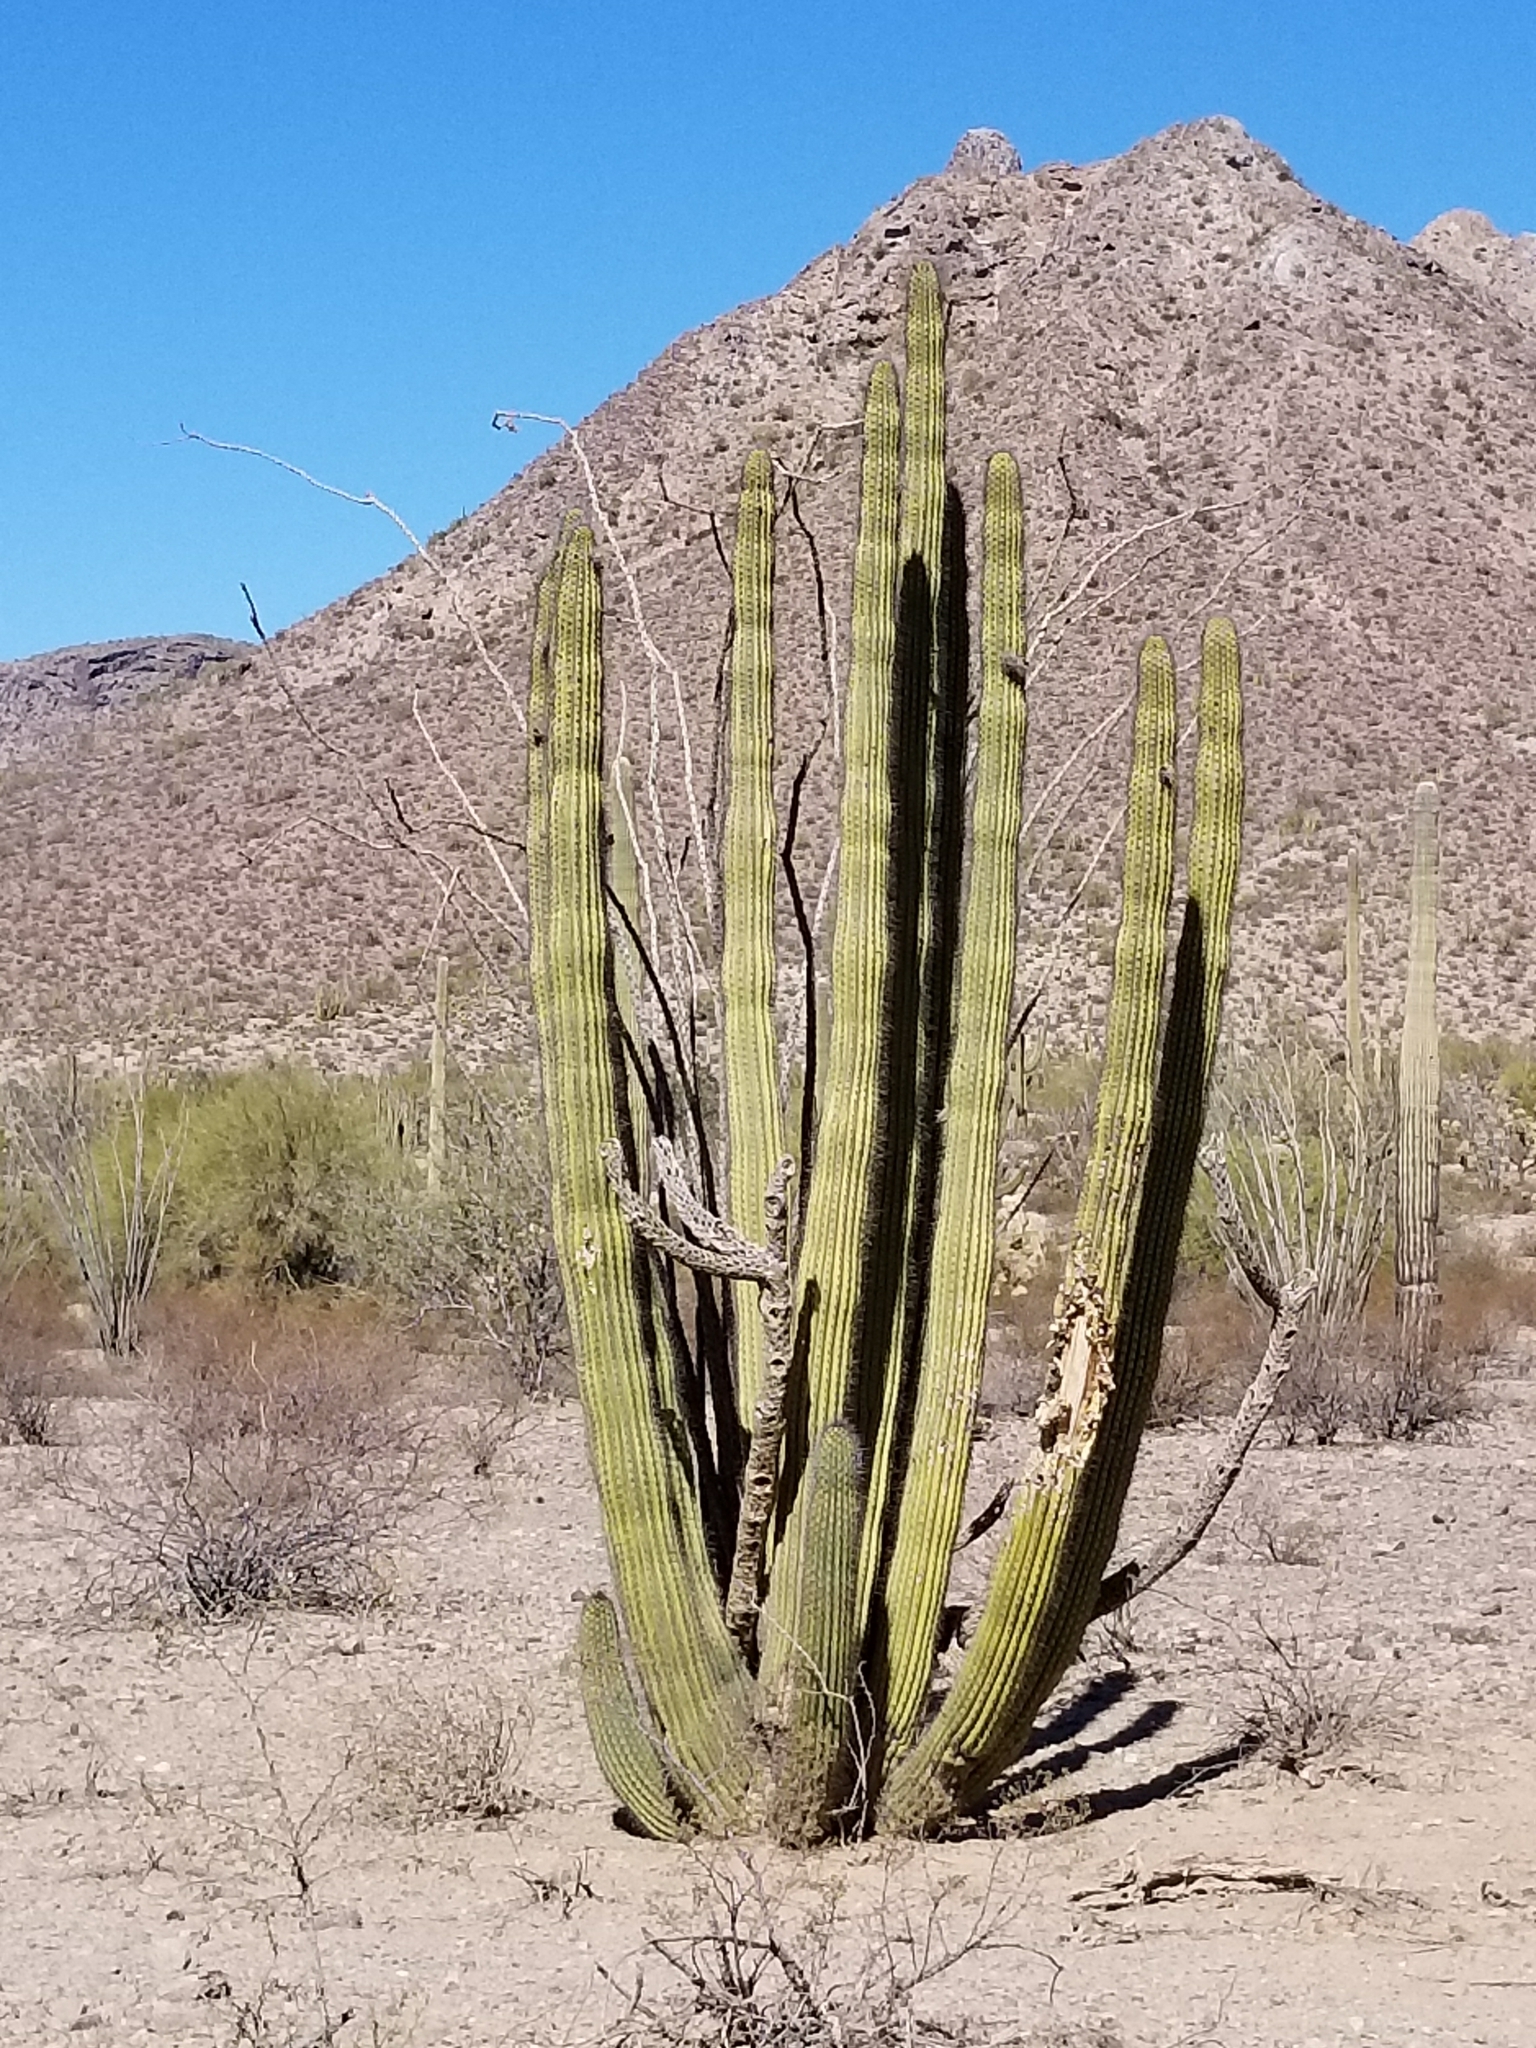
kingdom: Plantae
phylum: Tracheophyta
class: Magnoliopsida
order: Caryophyllales
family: Cactaceae
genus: Stenocereus
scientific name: Stenocereus thurberi
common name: Organ pipe cactus
